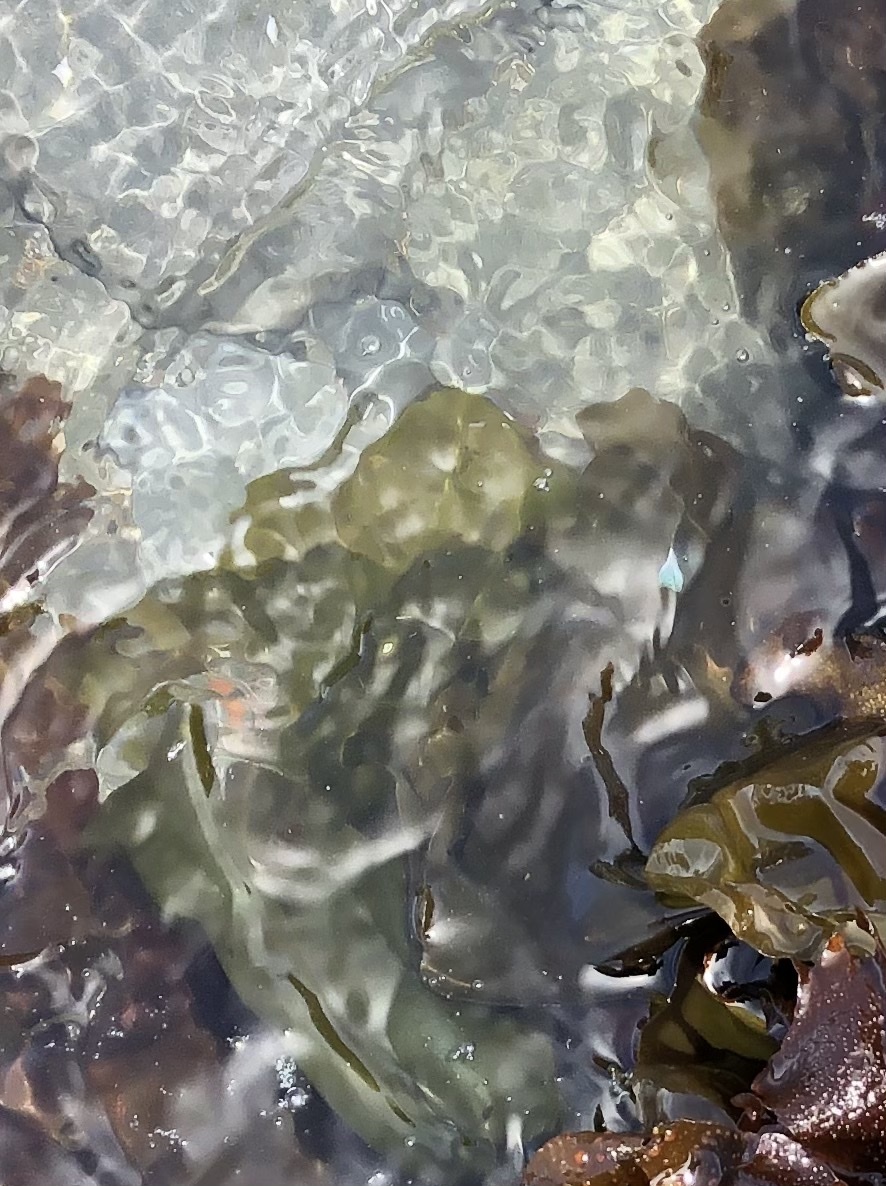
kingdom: Plantae
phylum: Rhodophyta
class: Florideophyceae
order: Gigartinales
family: Gigartinaceae
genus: Mazzaella
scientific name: Mazzaella flaccida
